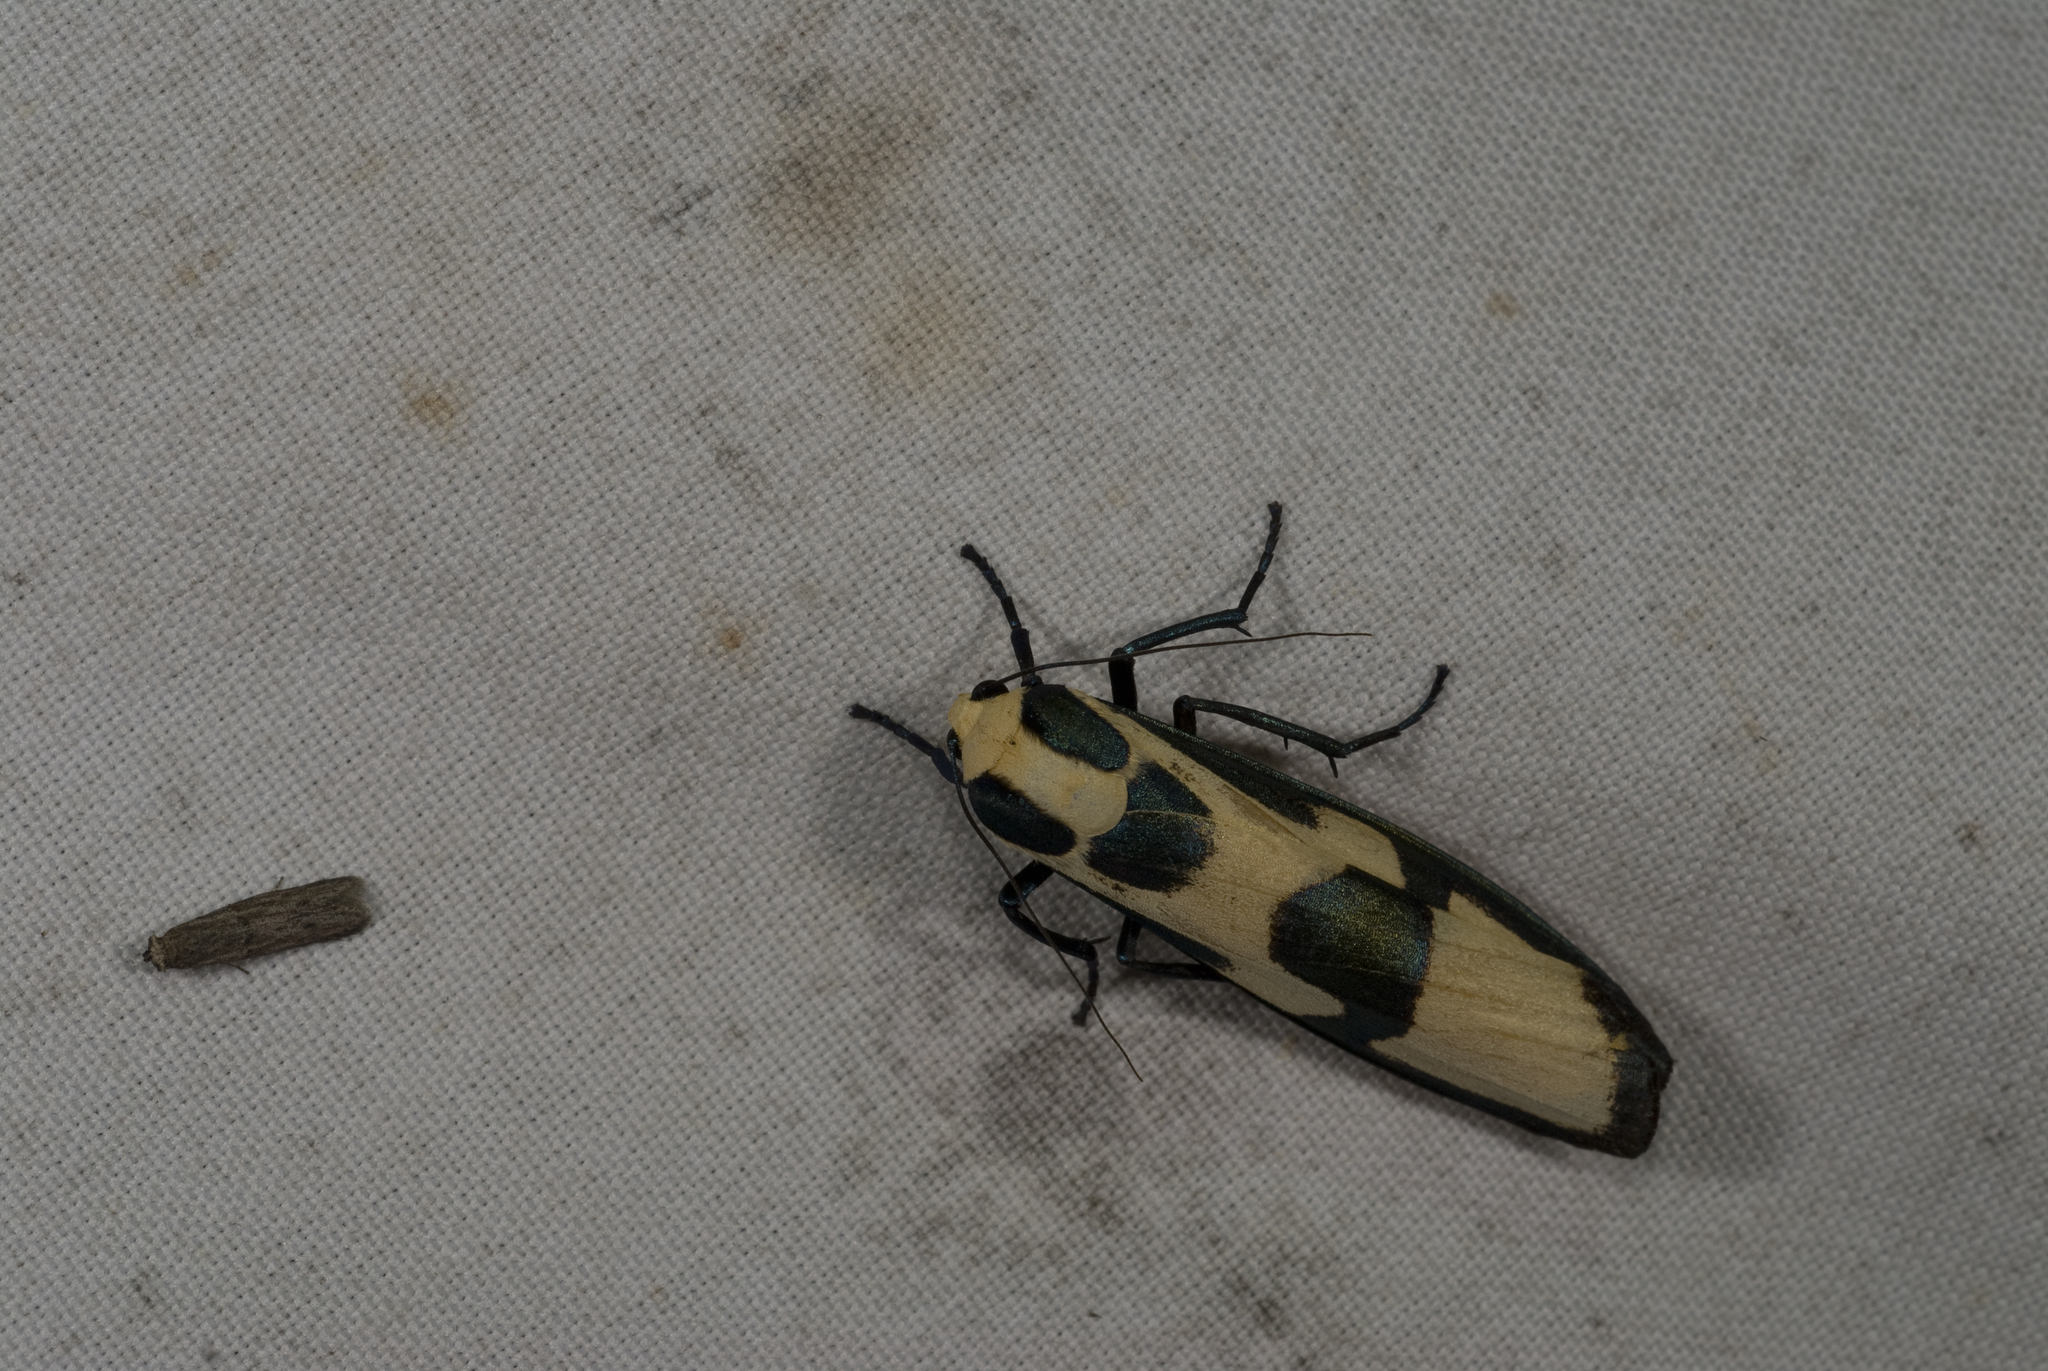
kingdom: Animalia
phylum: Arthropoda
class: Insecta
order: Lepidoptera
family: Erebidae
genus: Chrysaeglia
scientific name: Chrysaeglia magnifica
